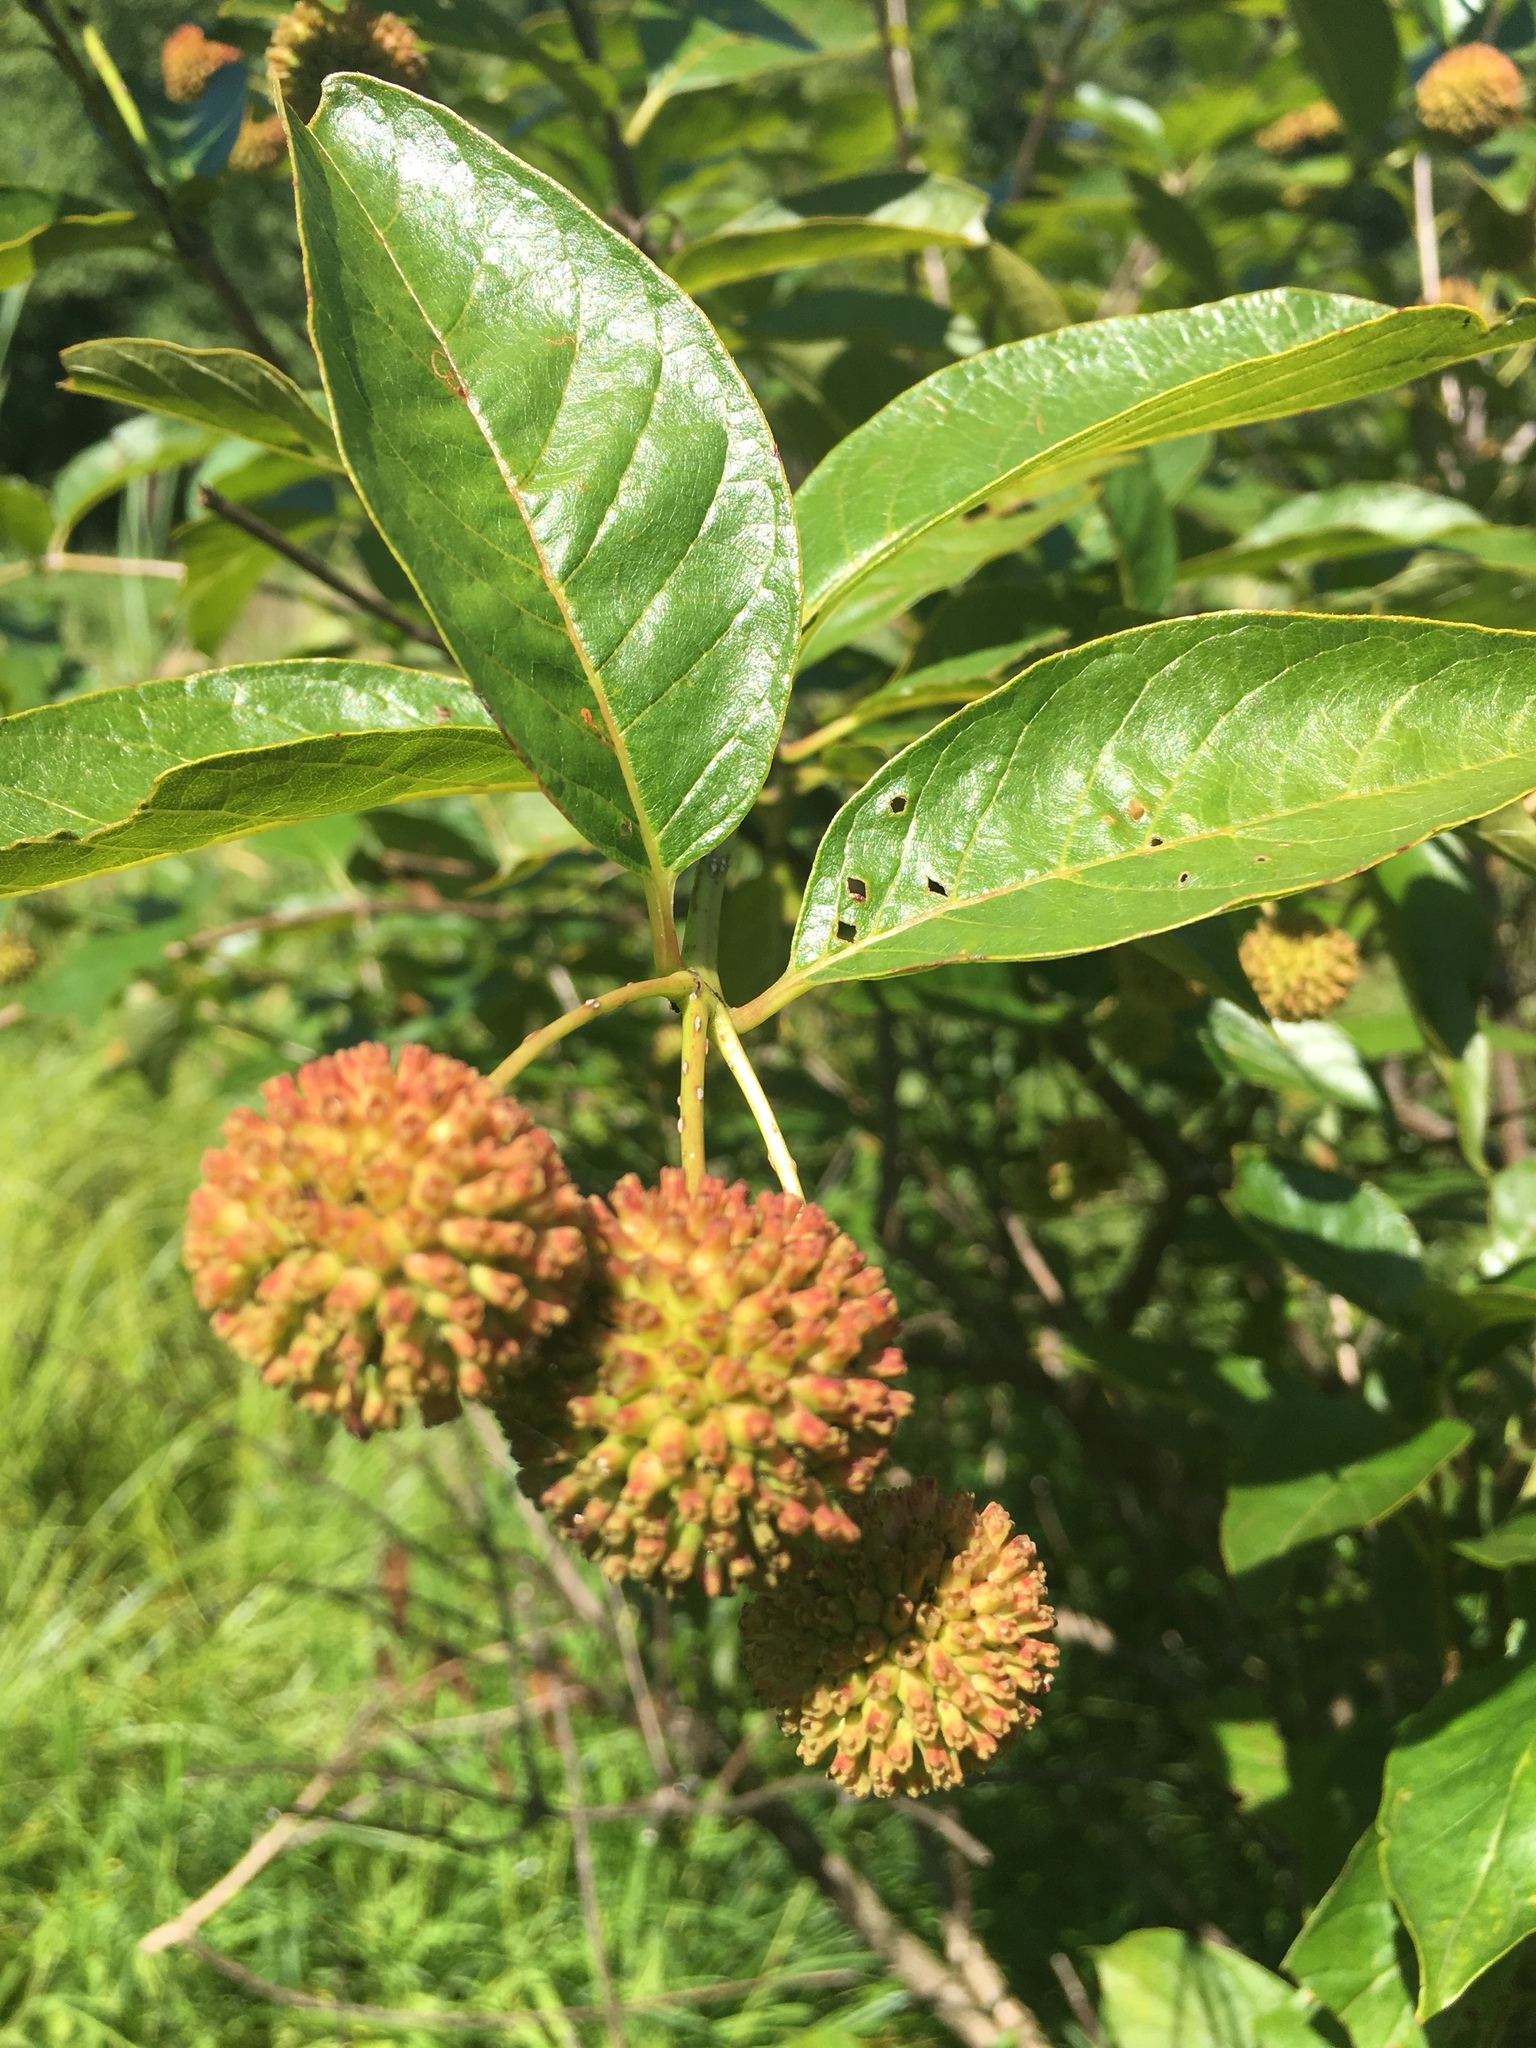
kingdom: Plantae
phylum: Tracheophyta
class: Magnoliopsida
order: Gentianales
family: Rubiaceae
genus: Cephalanthus
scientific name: Cephalanthus occidentalis
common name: Button-willow
